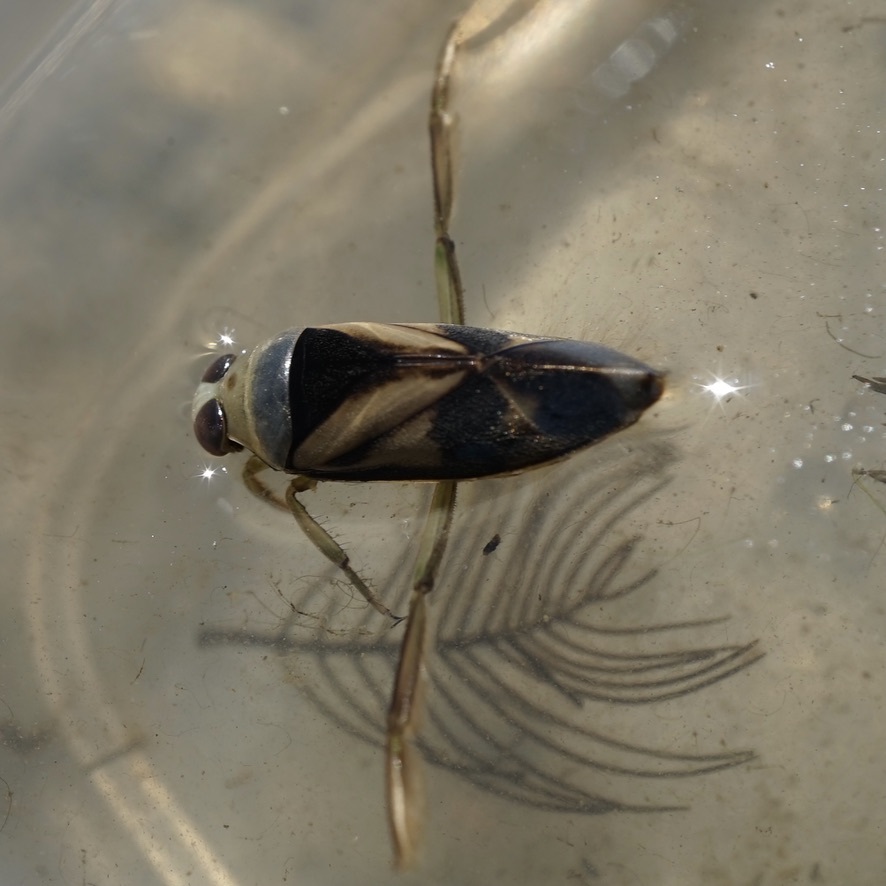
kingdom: Animalia
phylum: Arthropoda
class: Insecta
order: Hemiptera
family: Notonectidae
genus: Notonecta
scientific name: Notonecta triguttata
